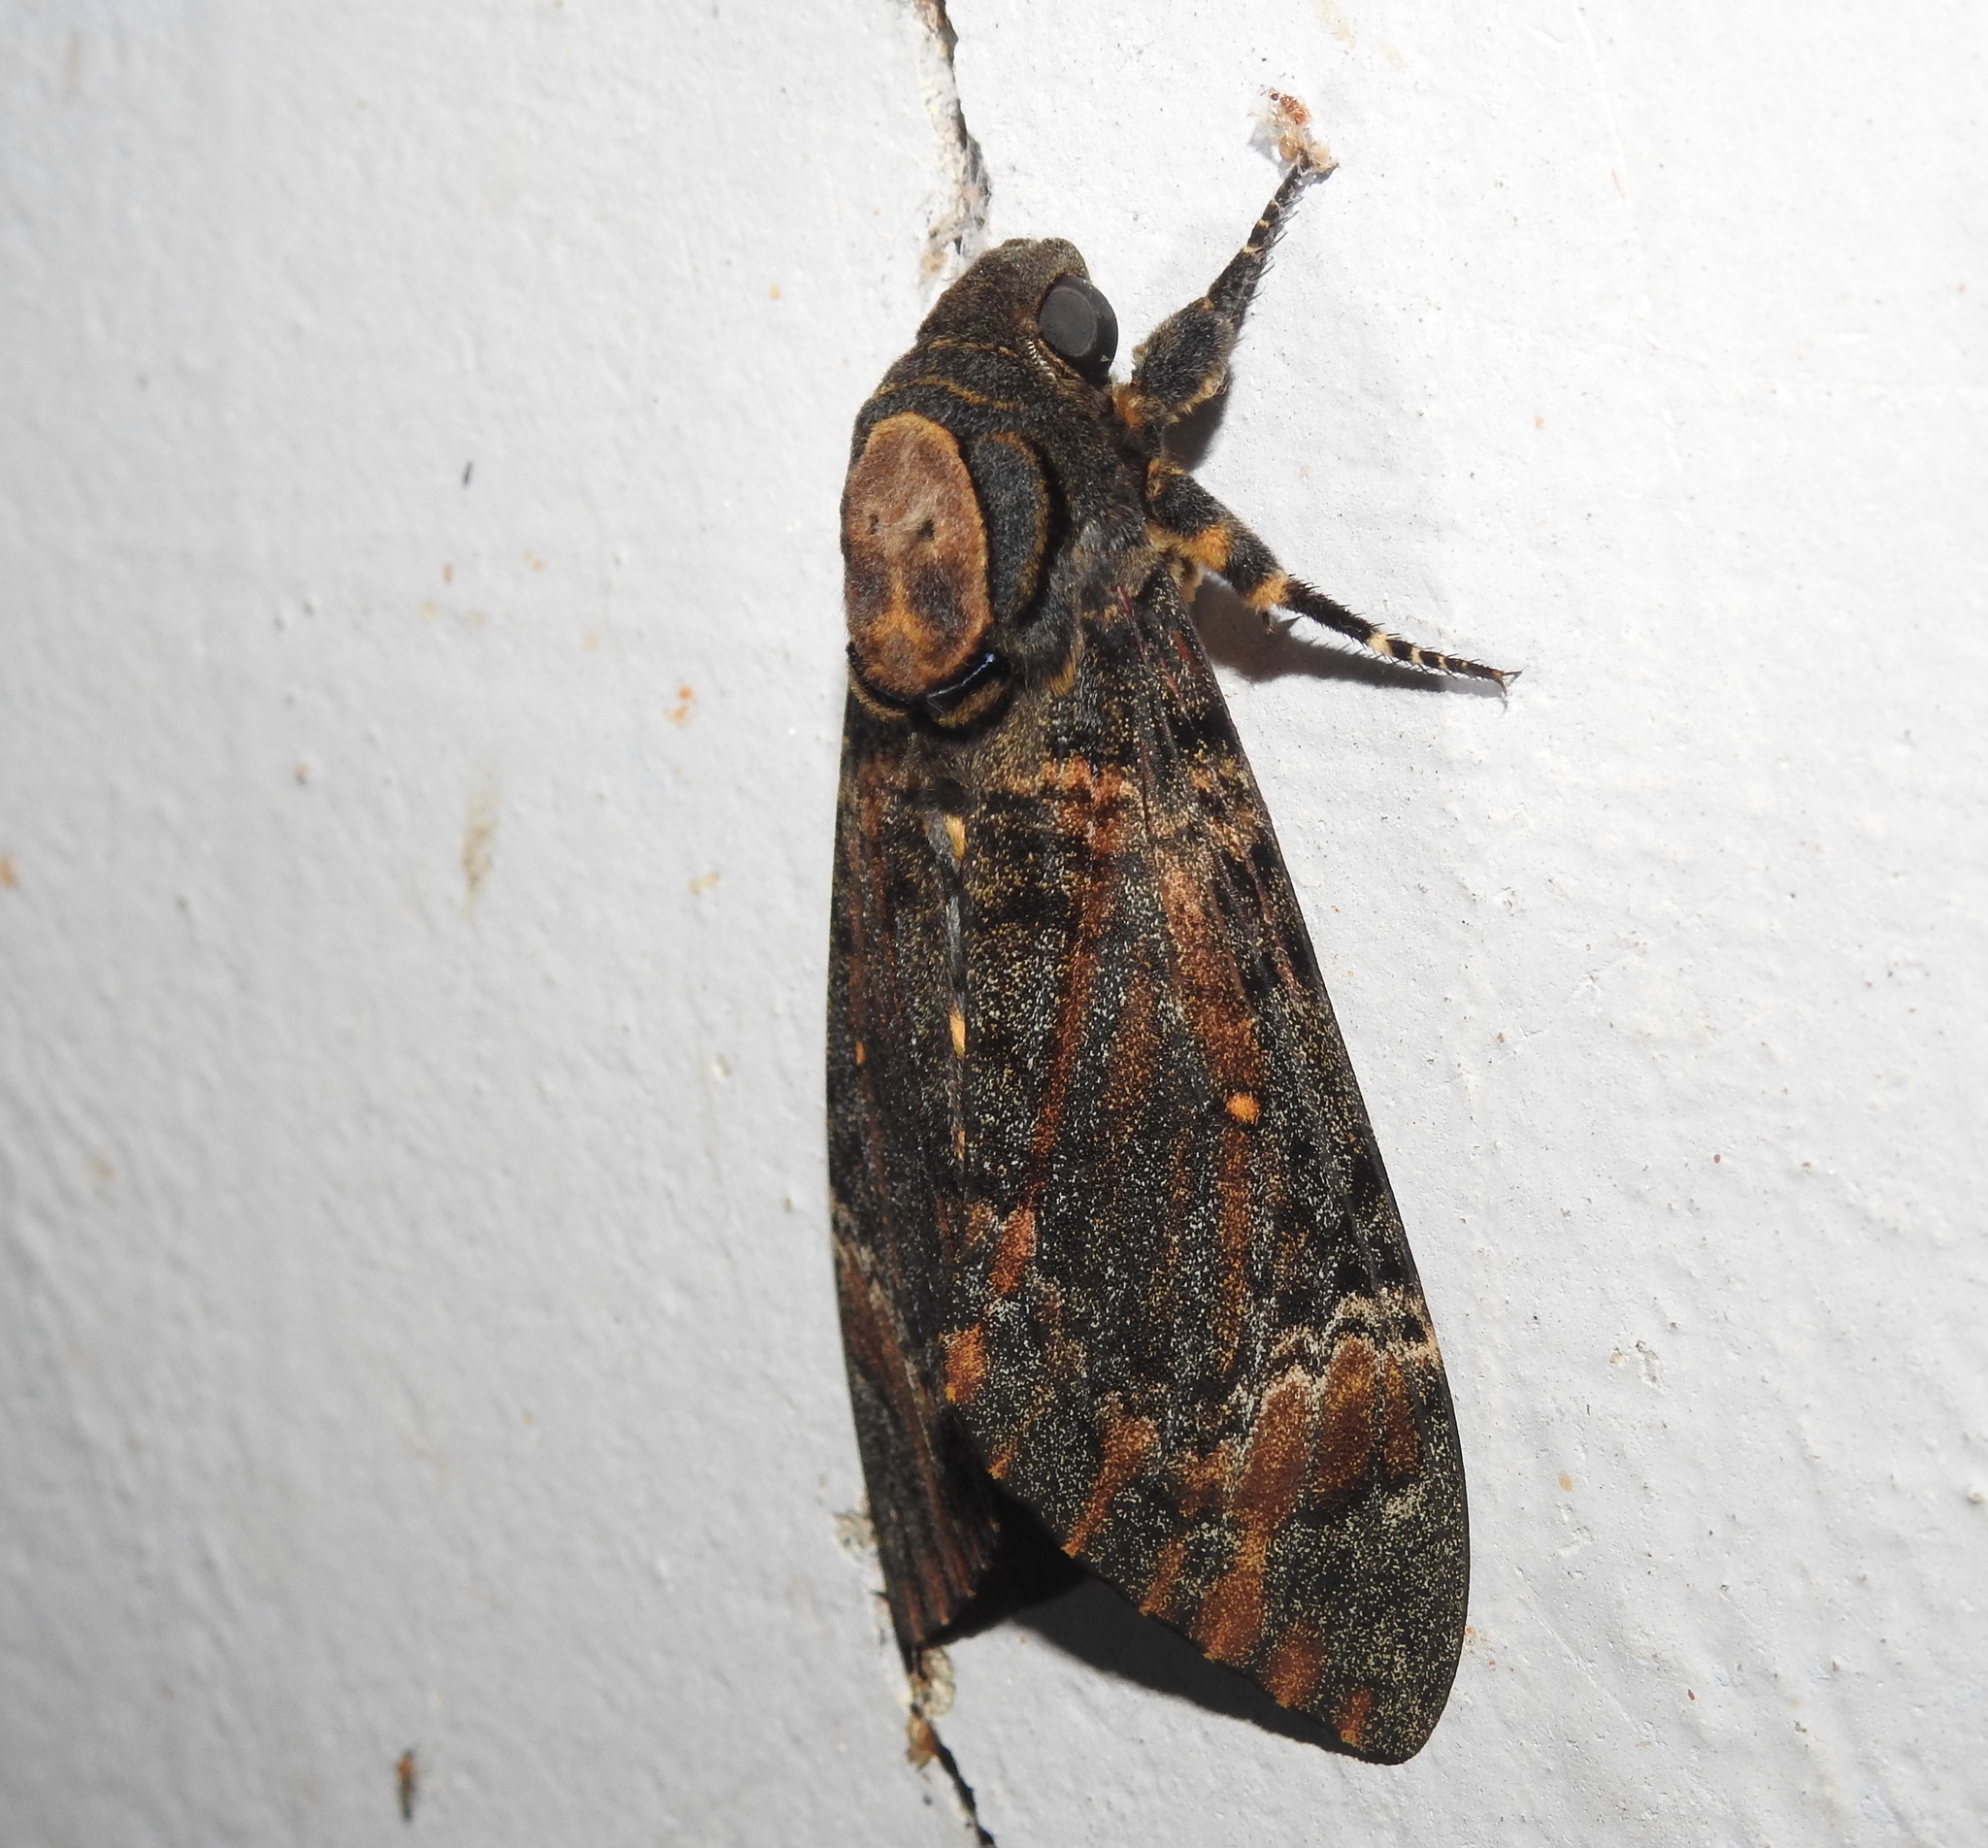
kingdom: Animalia
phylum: Arthropoda
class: Insecta
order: Lepidoptera
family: Sphingidae
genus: Acherontia
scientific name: Acherontia styx
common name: Death's-head hawk moth
